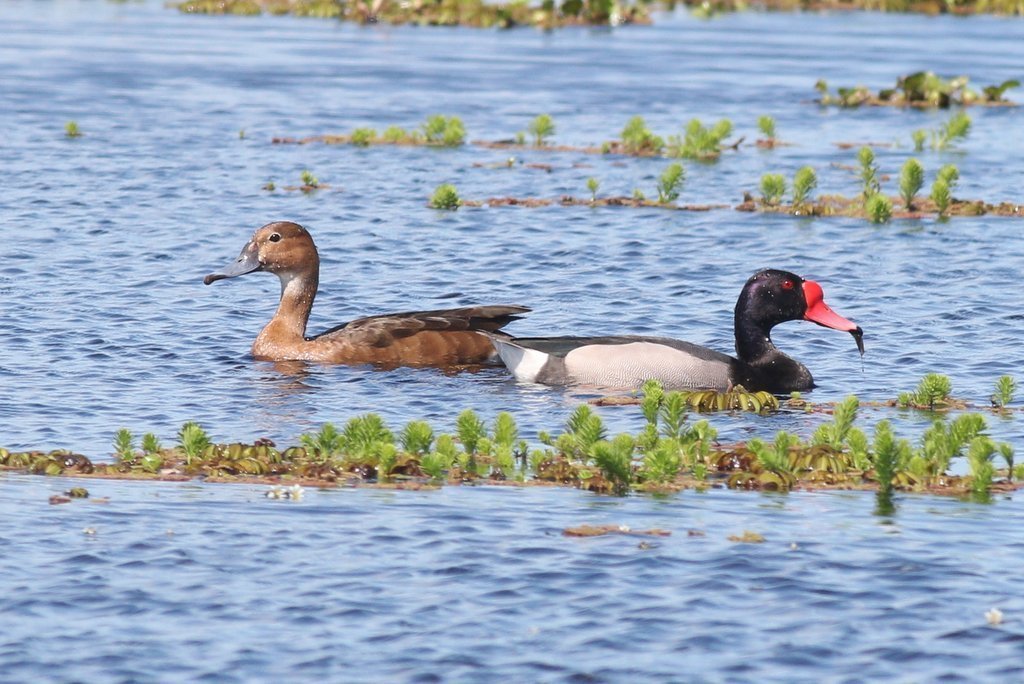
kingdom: Animalia
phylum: Chordata
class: Aves
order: Anseriformes
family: Anatidae
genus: Netta
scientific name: Netta peposaca
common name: Rosy-billed pochard
